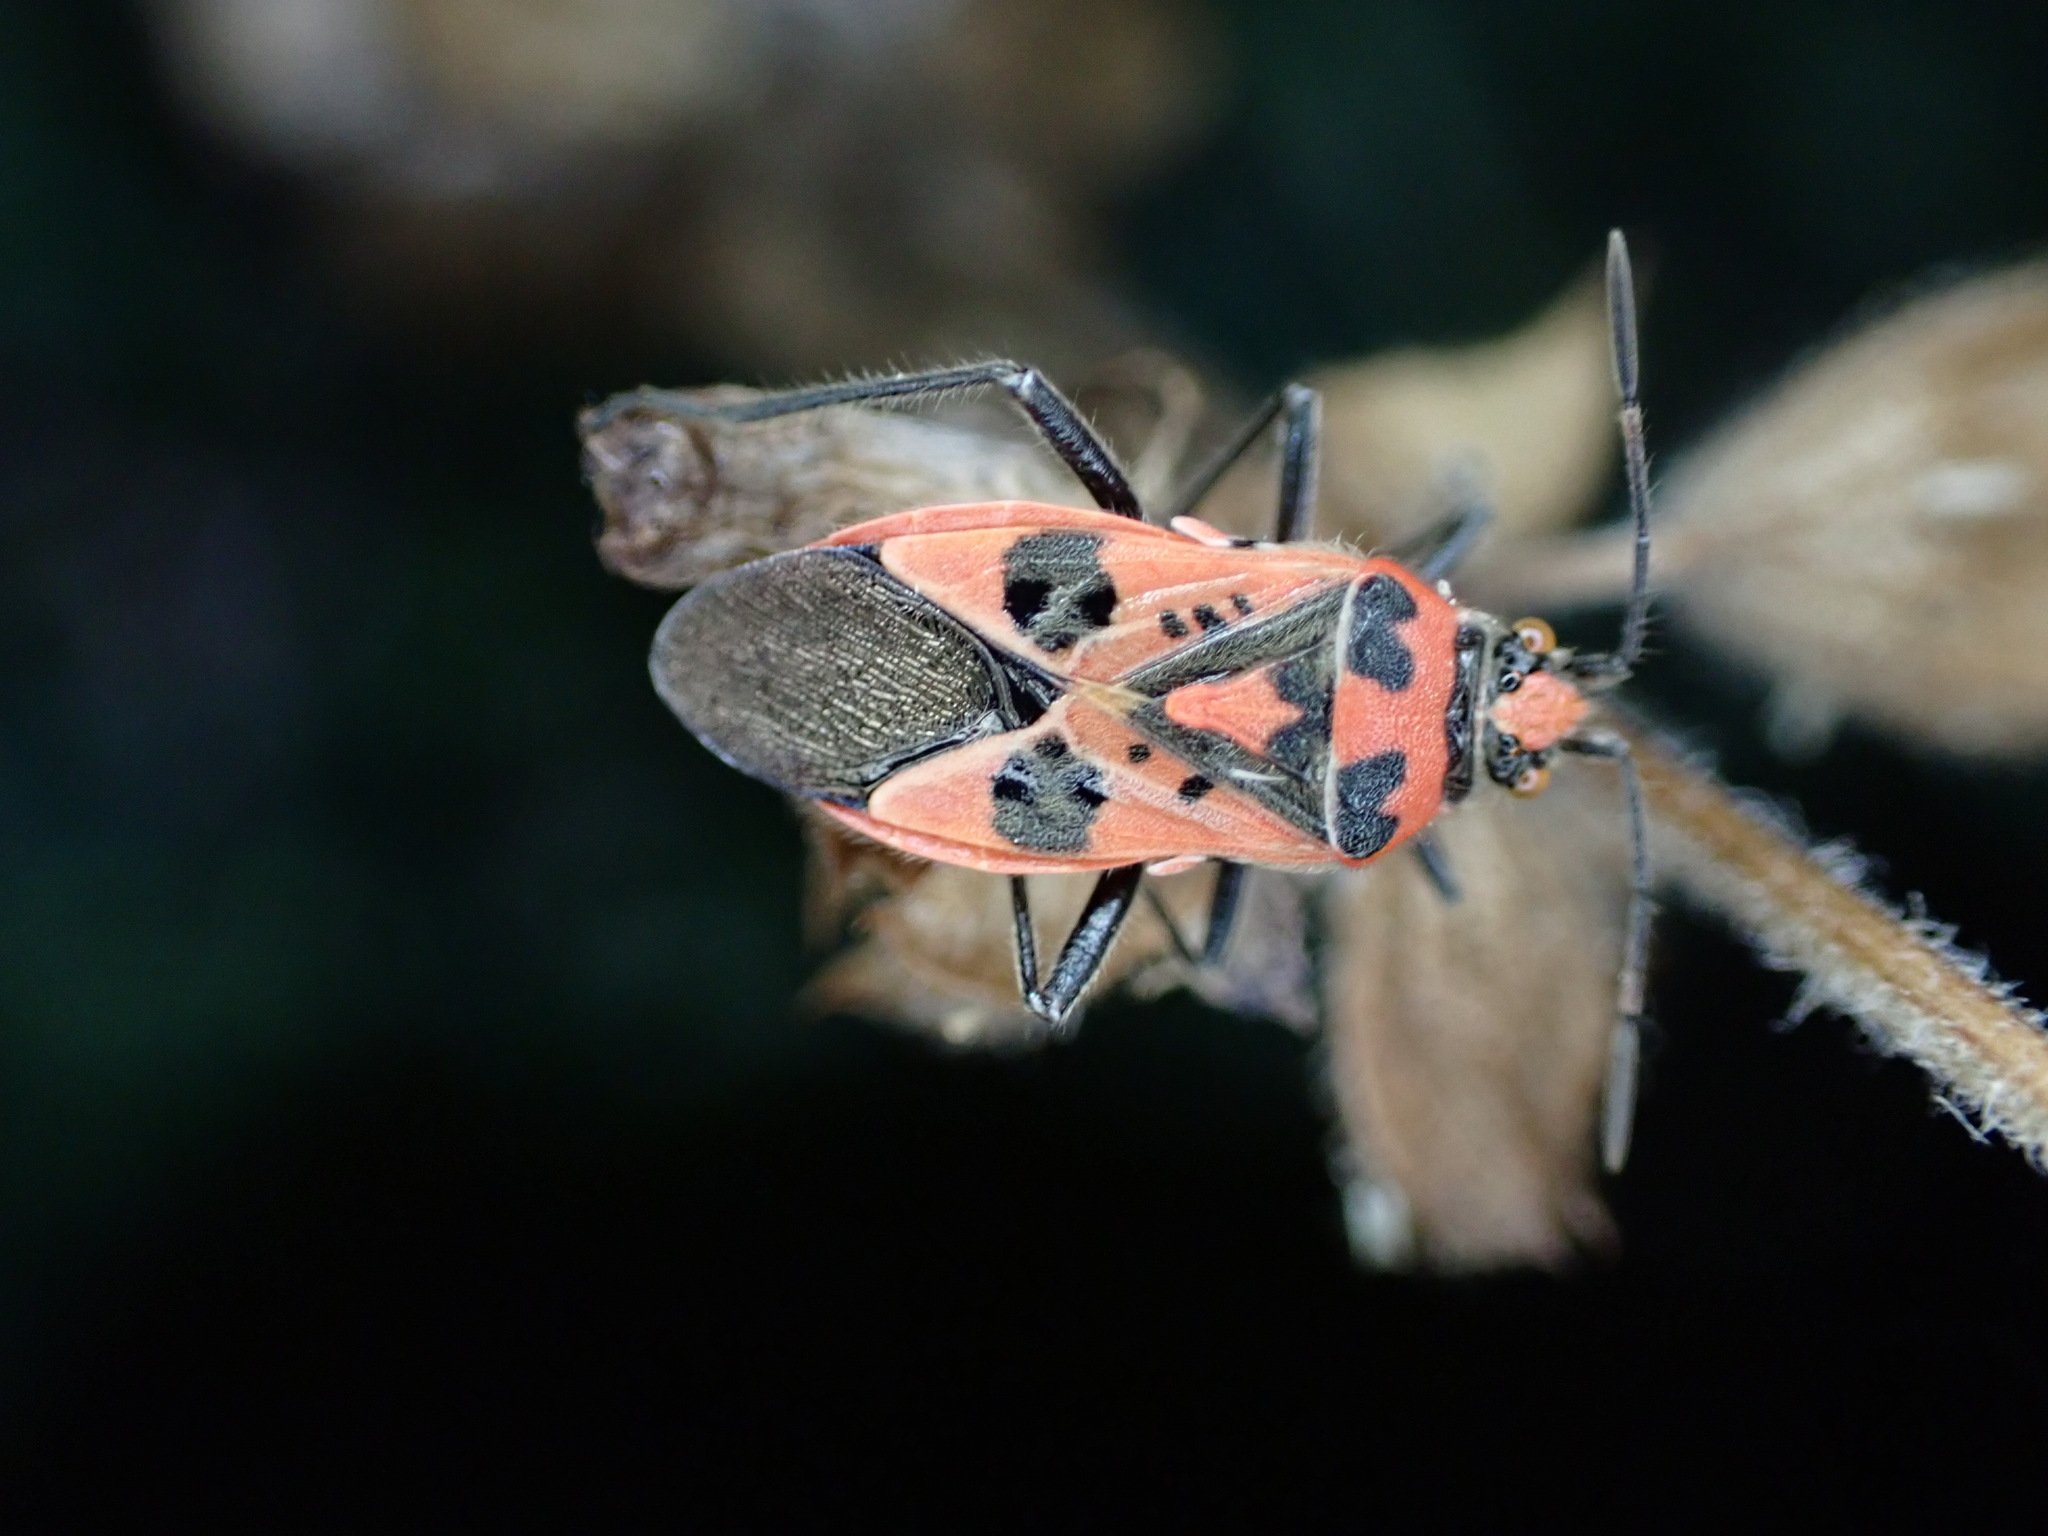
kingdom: Animalia
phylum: Arthropoda
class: Insecta
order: Hemiptera
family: Rhopalidae
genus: Corizus
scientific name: Corizus hyoscyami
